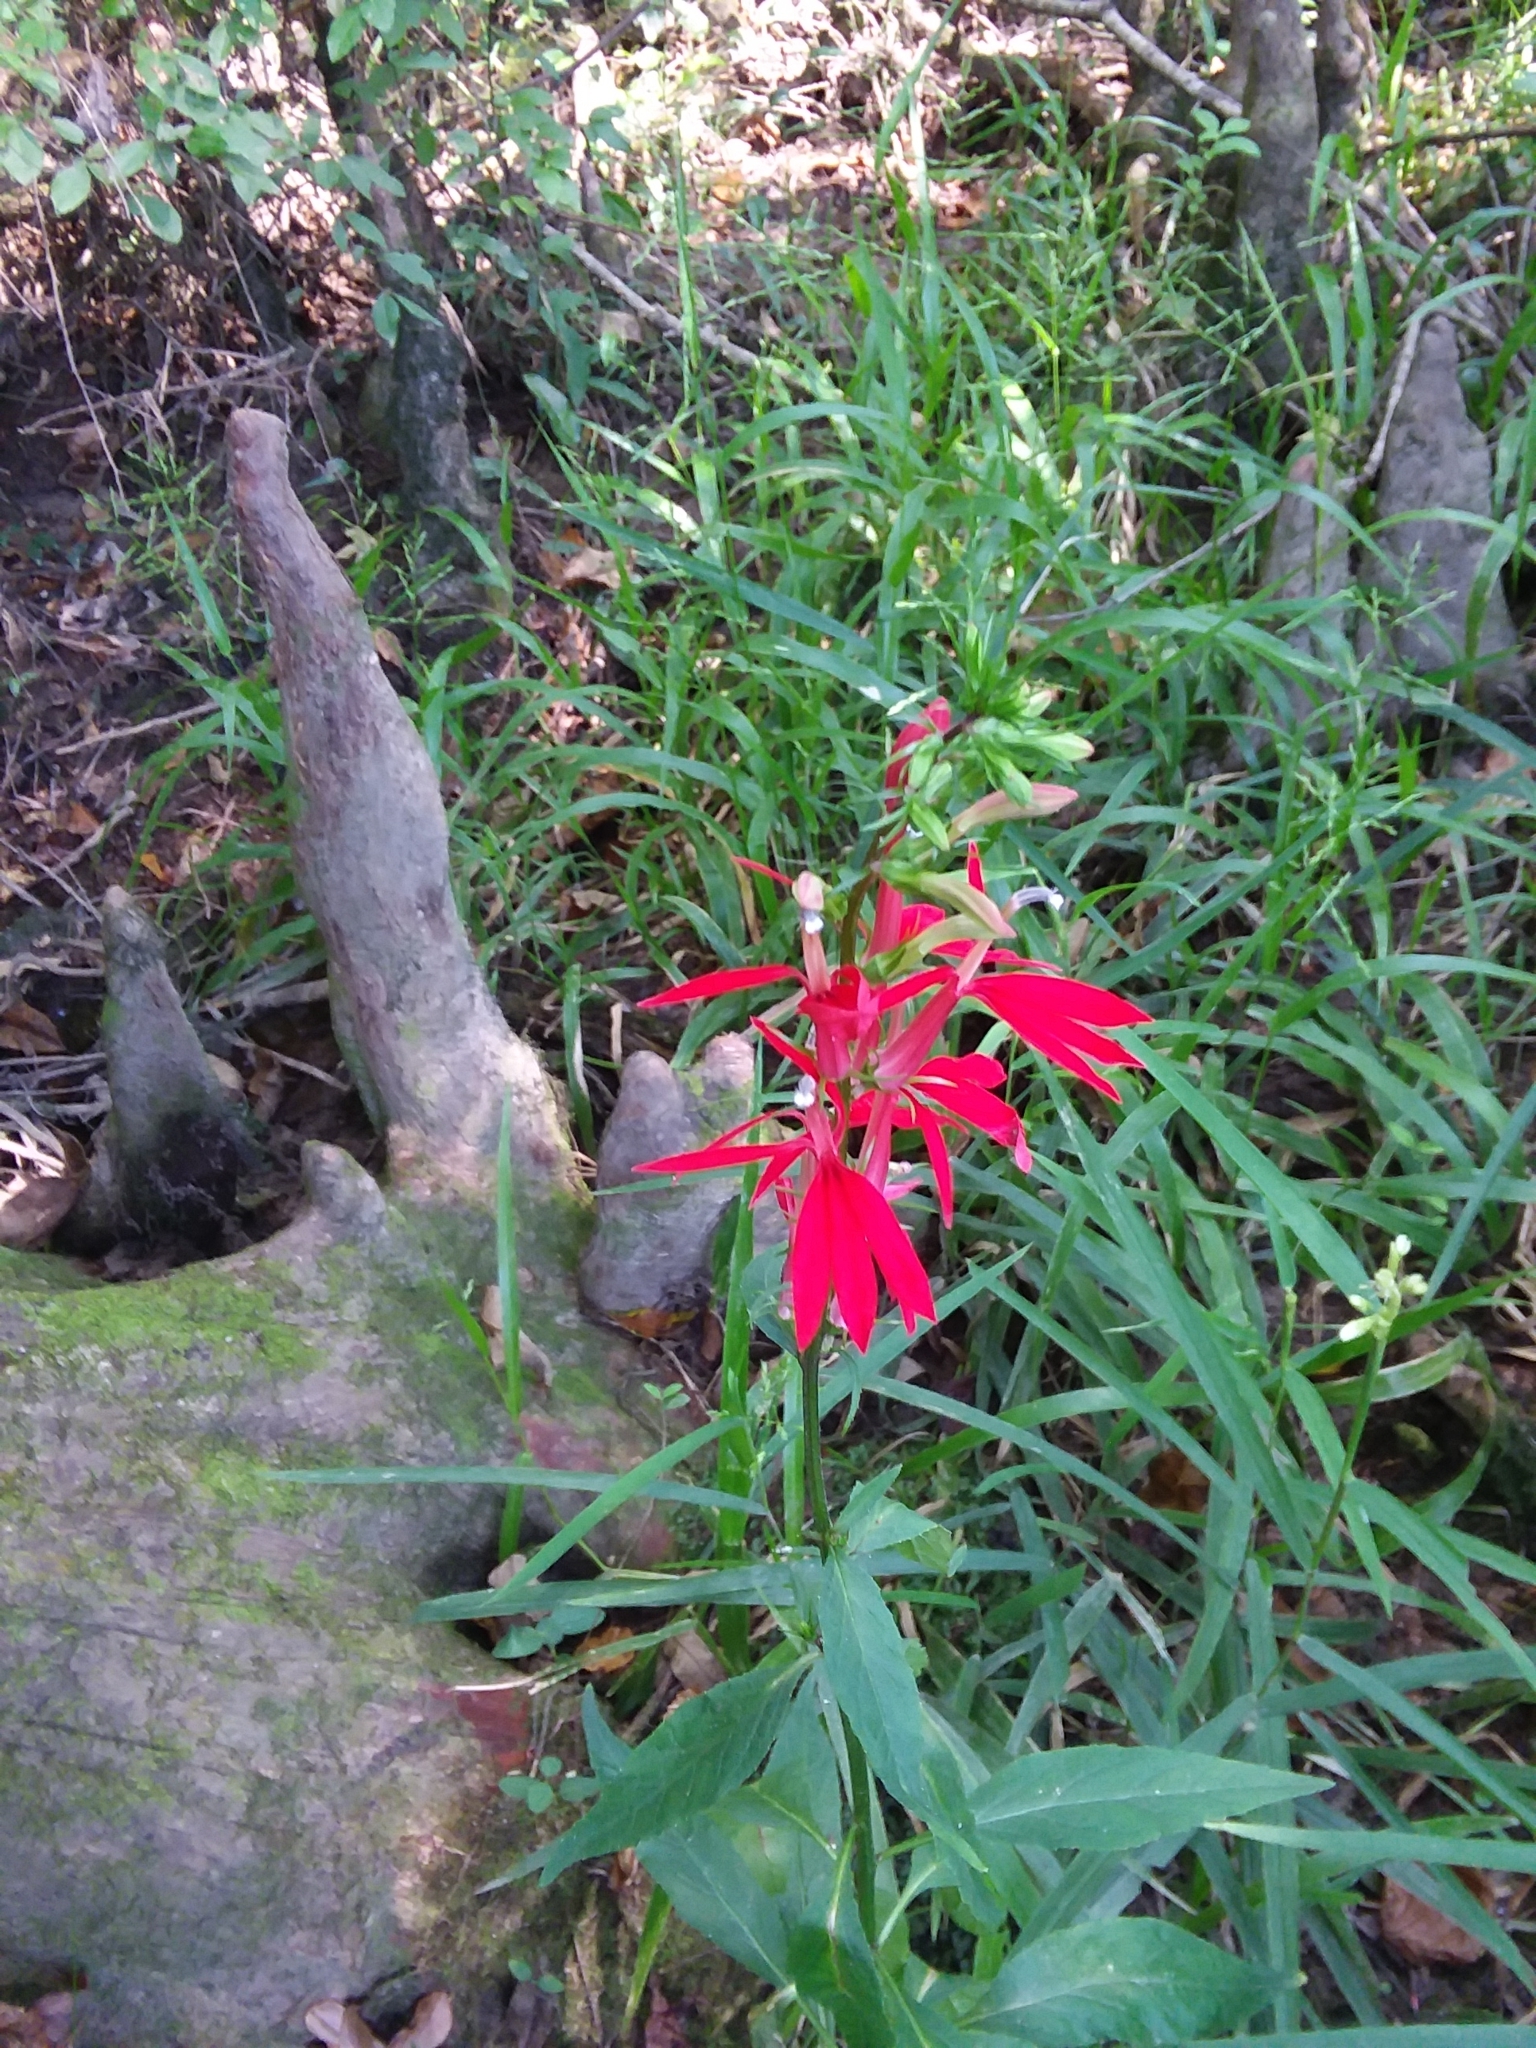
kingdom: Plantae
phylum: Tracheophyta
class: Magnoliopsida
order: Asterales
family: Campanulaceae
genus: Lobelia
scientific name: Lobelia cardinalis
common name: Cardinal flower
